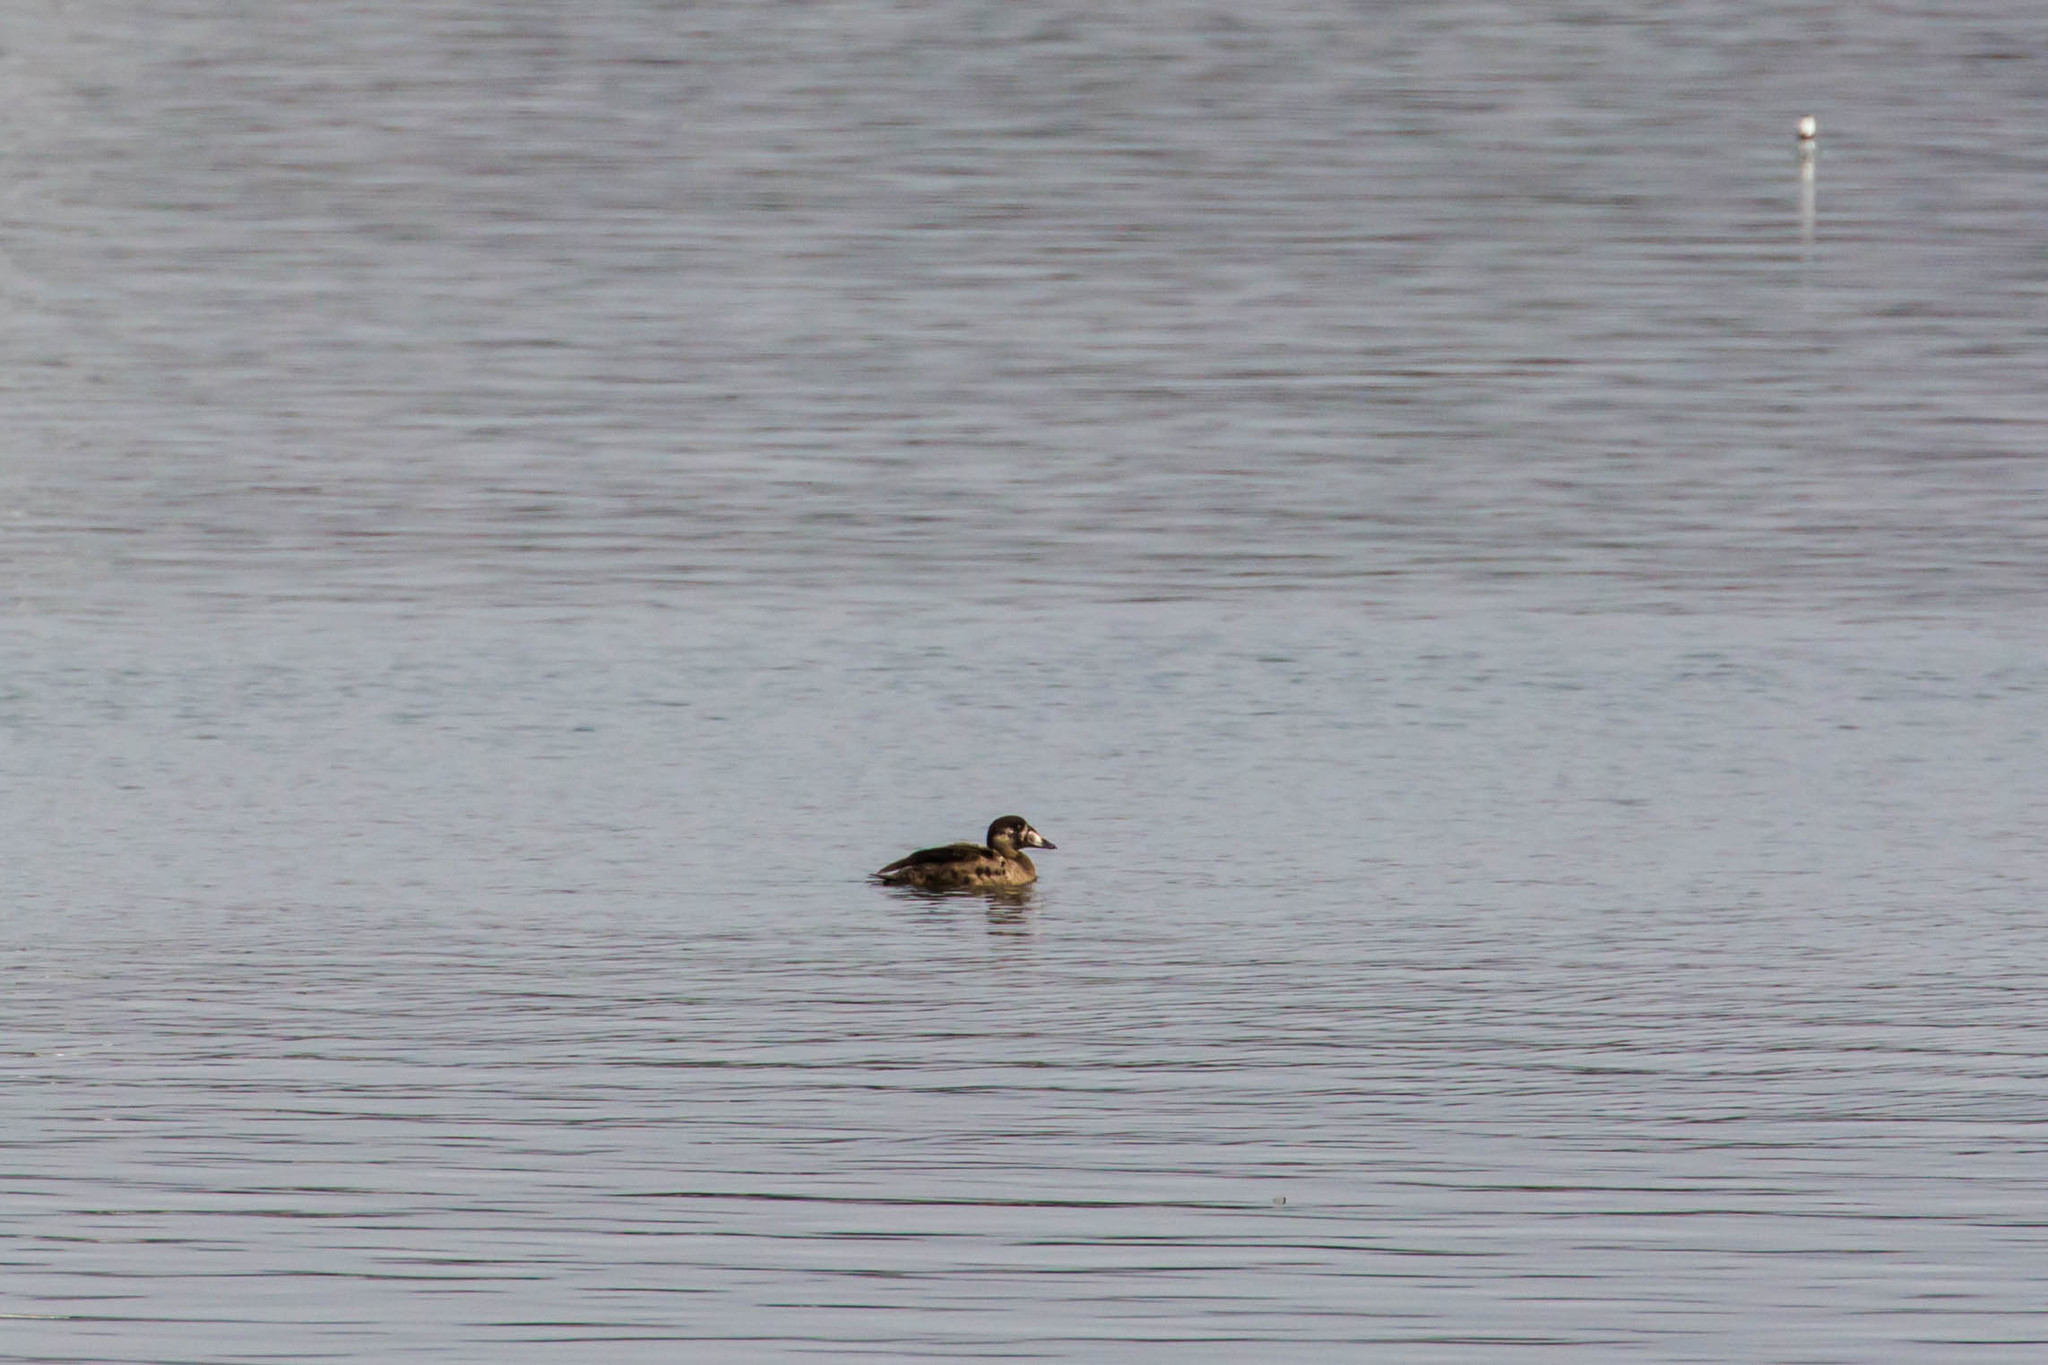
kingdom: Animalia
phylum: Chordata
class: Aves
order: Anseriformes
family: Anatidae
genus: Melanitta
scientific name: Melanitta perspicillata
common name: Surf scoter
